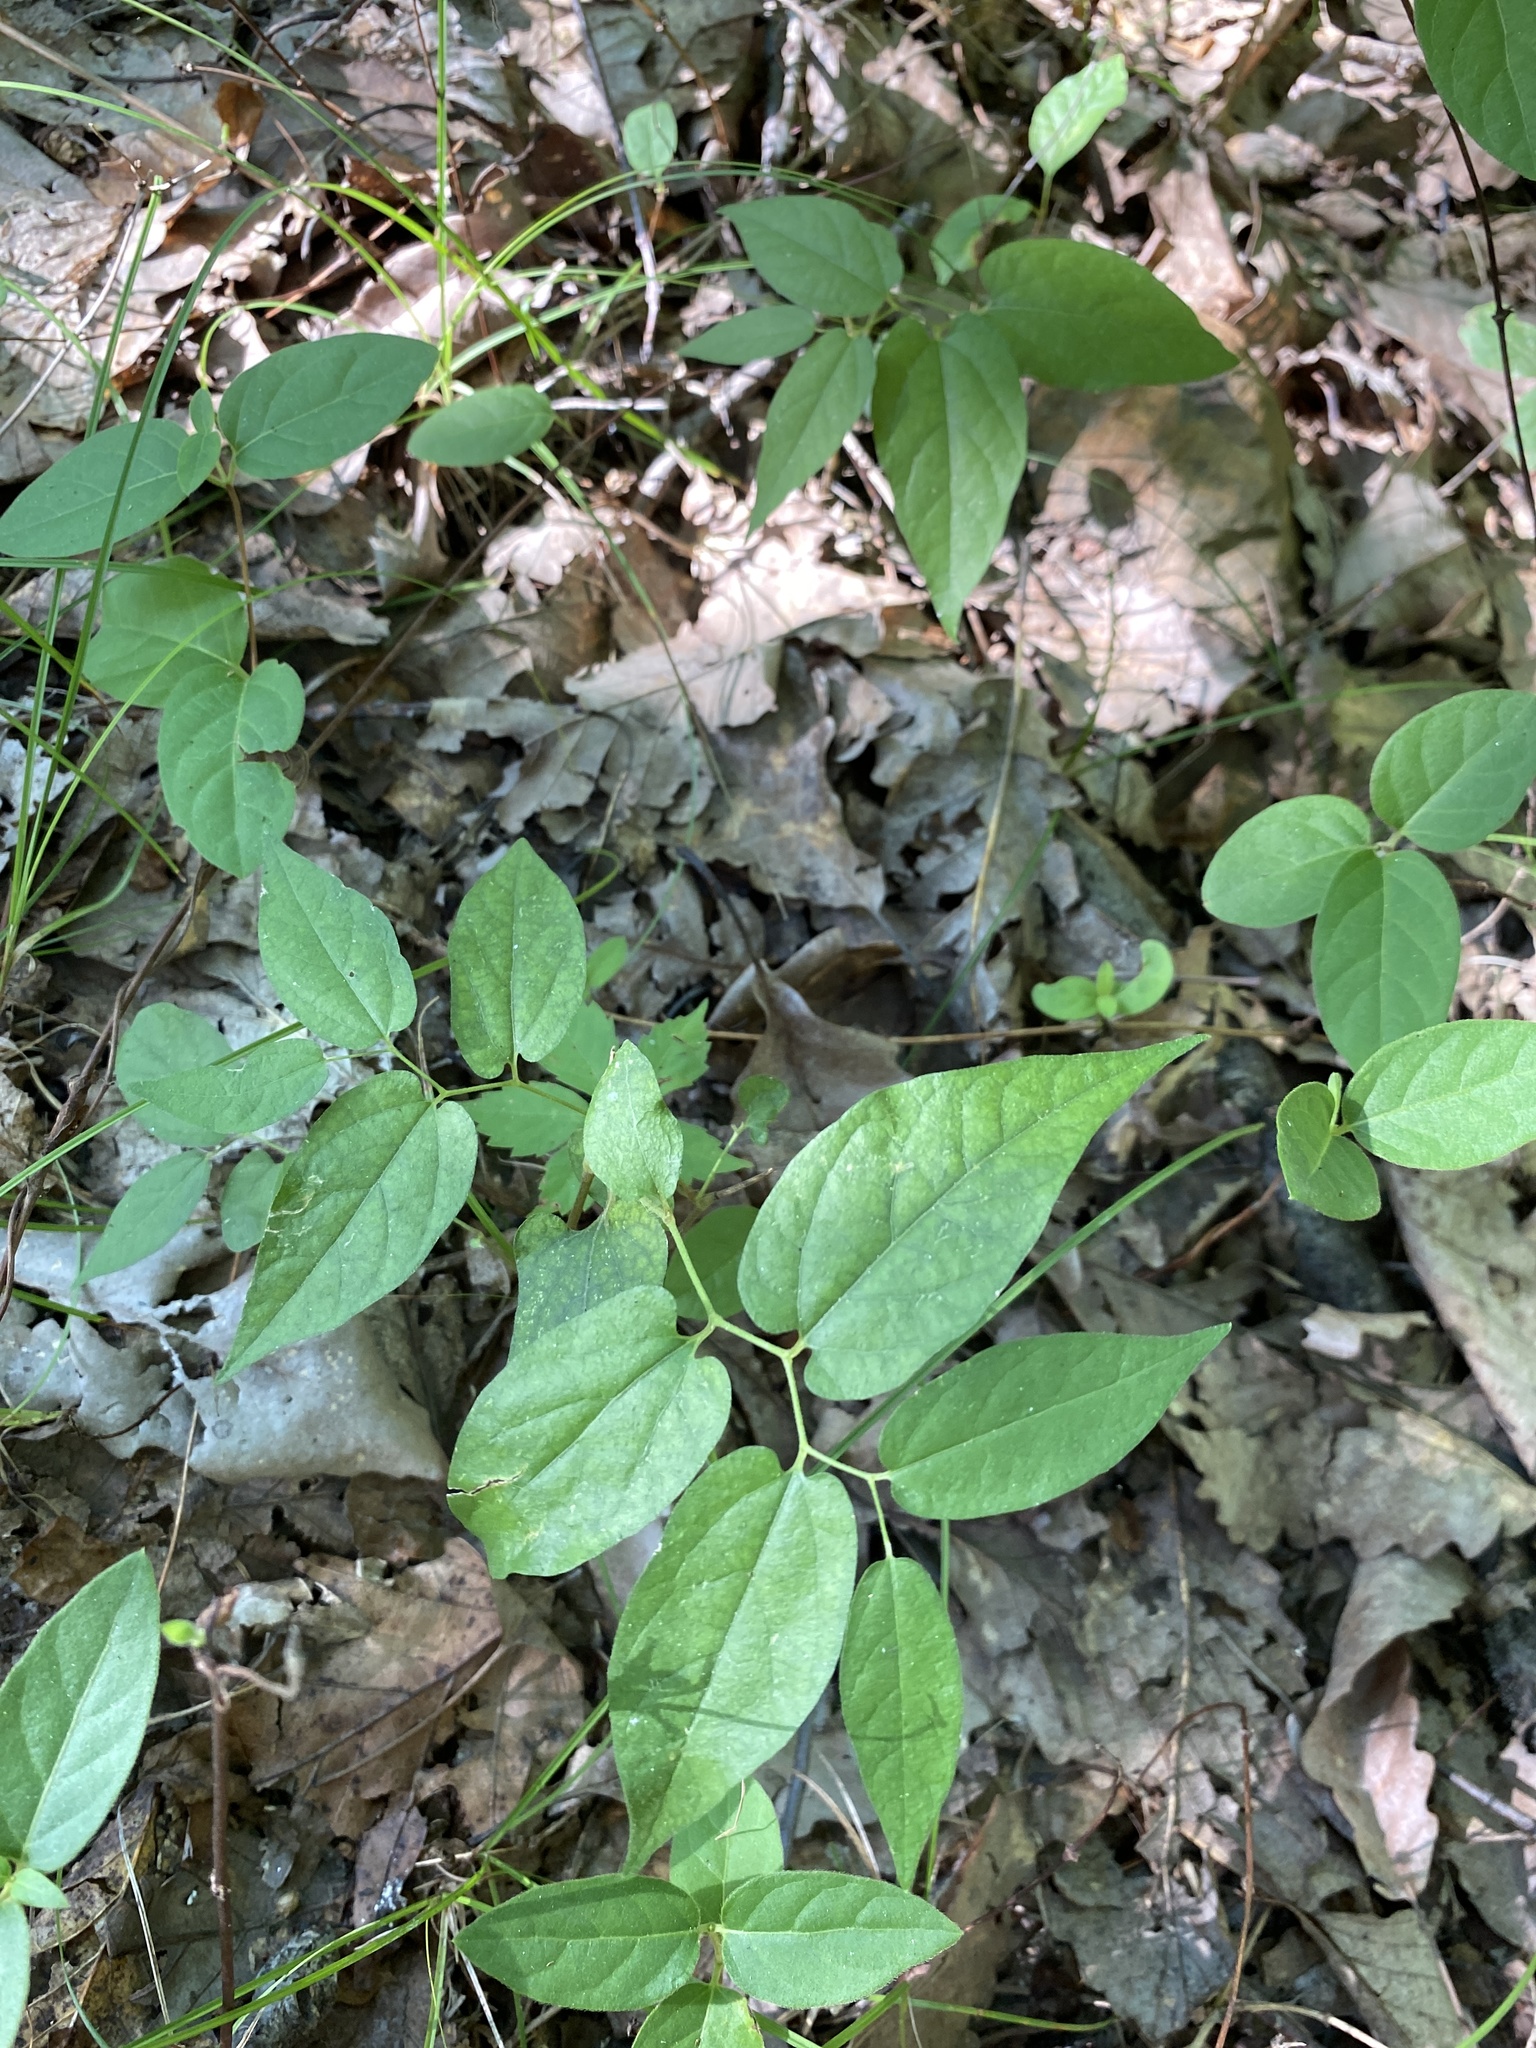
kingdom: Plantae
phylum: Tracheophyta
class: Magnoliopsida
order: Piperales
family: Aristolochiaceae
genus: Endodeca
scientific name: Endodeca serpentaria
